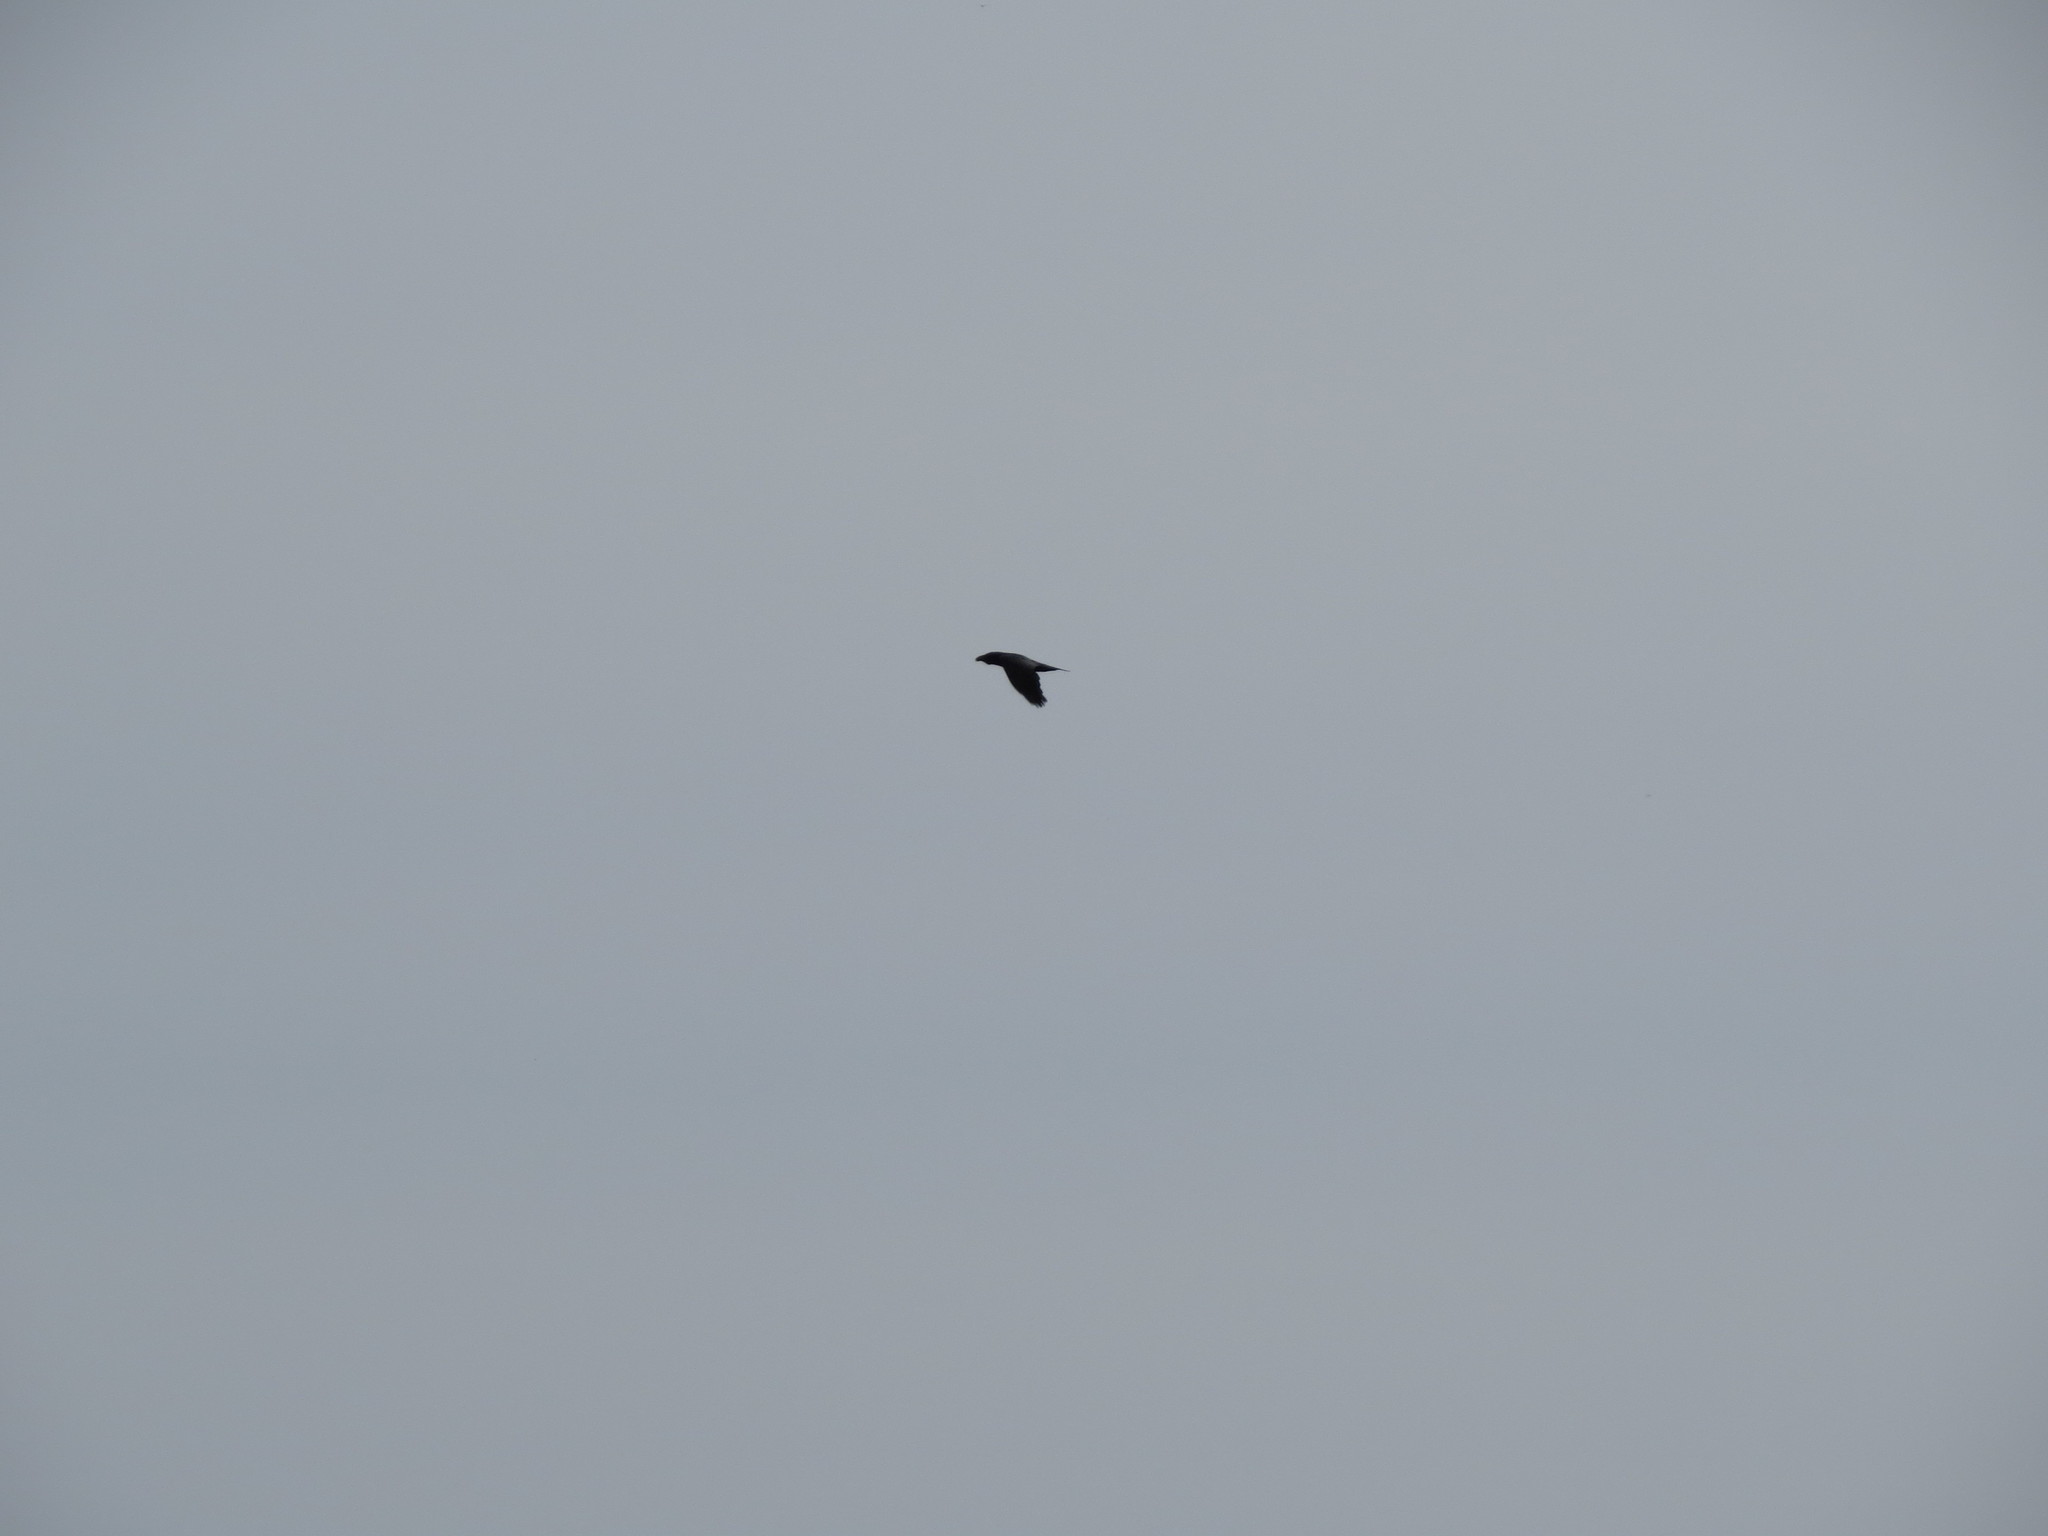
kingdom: Animalia
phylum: Chordata
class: Aves
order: Passeriformes
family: Corvidae
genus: Corvus
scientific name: Corvus corax
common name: Common raven
